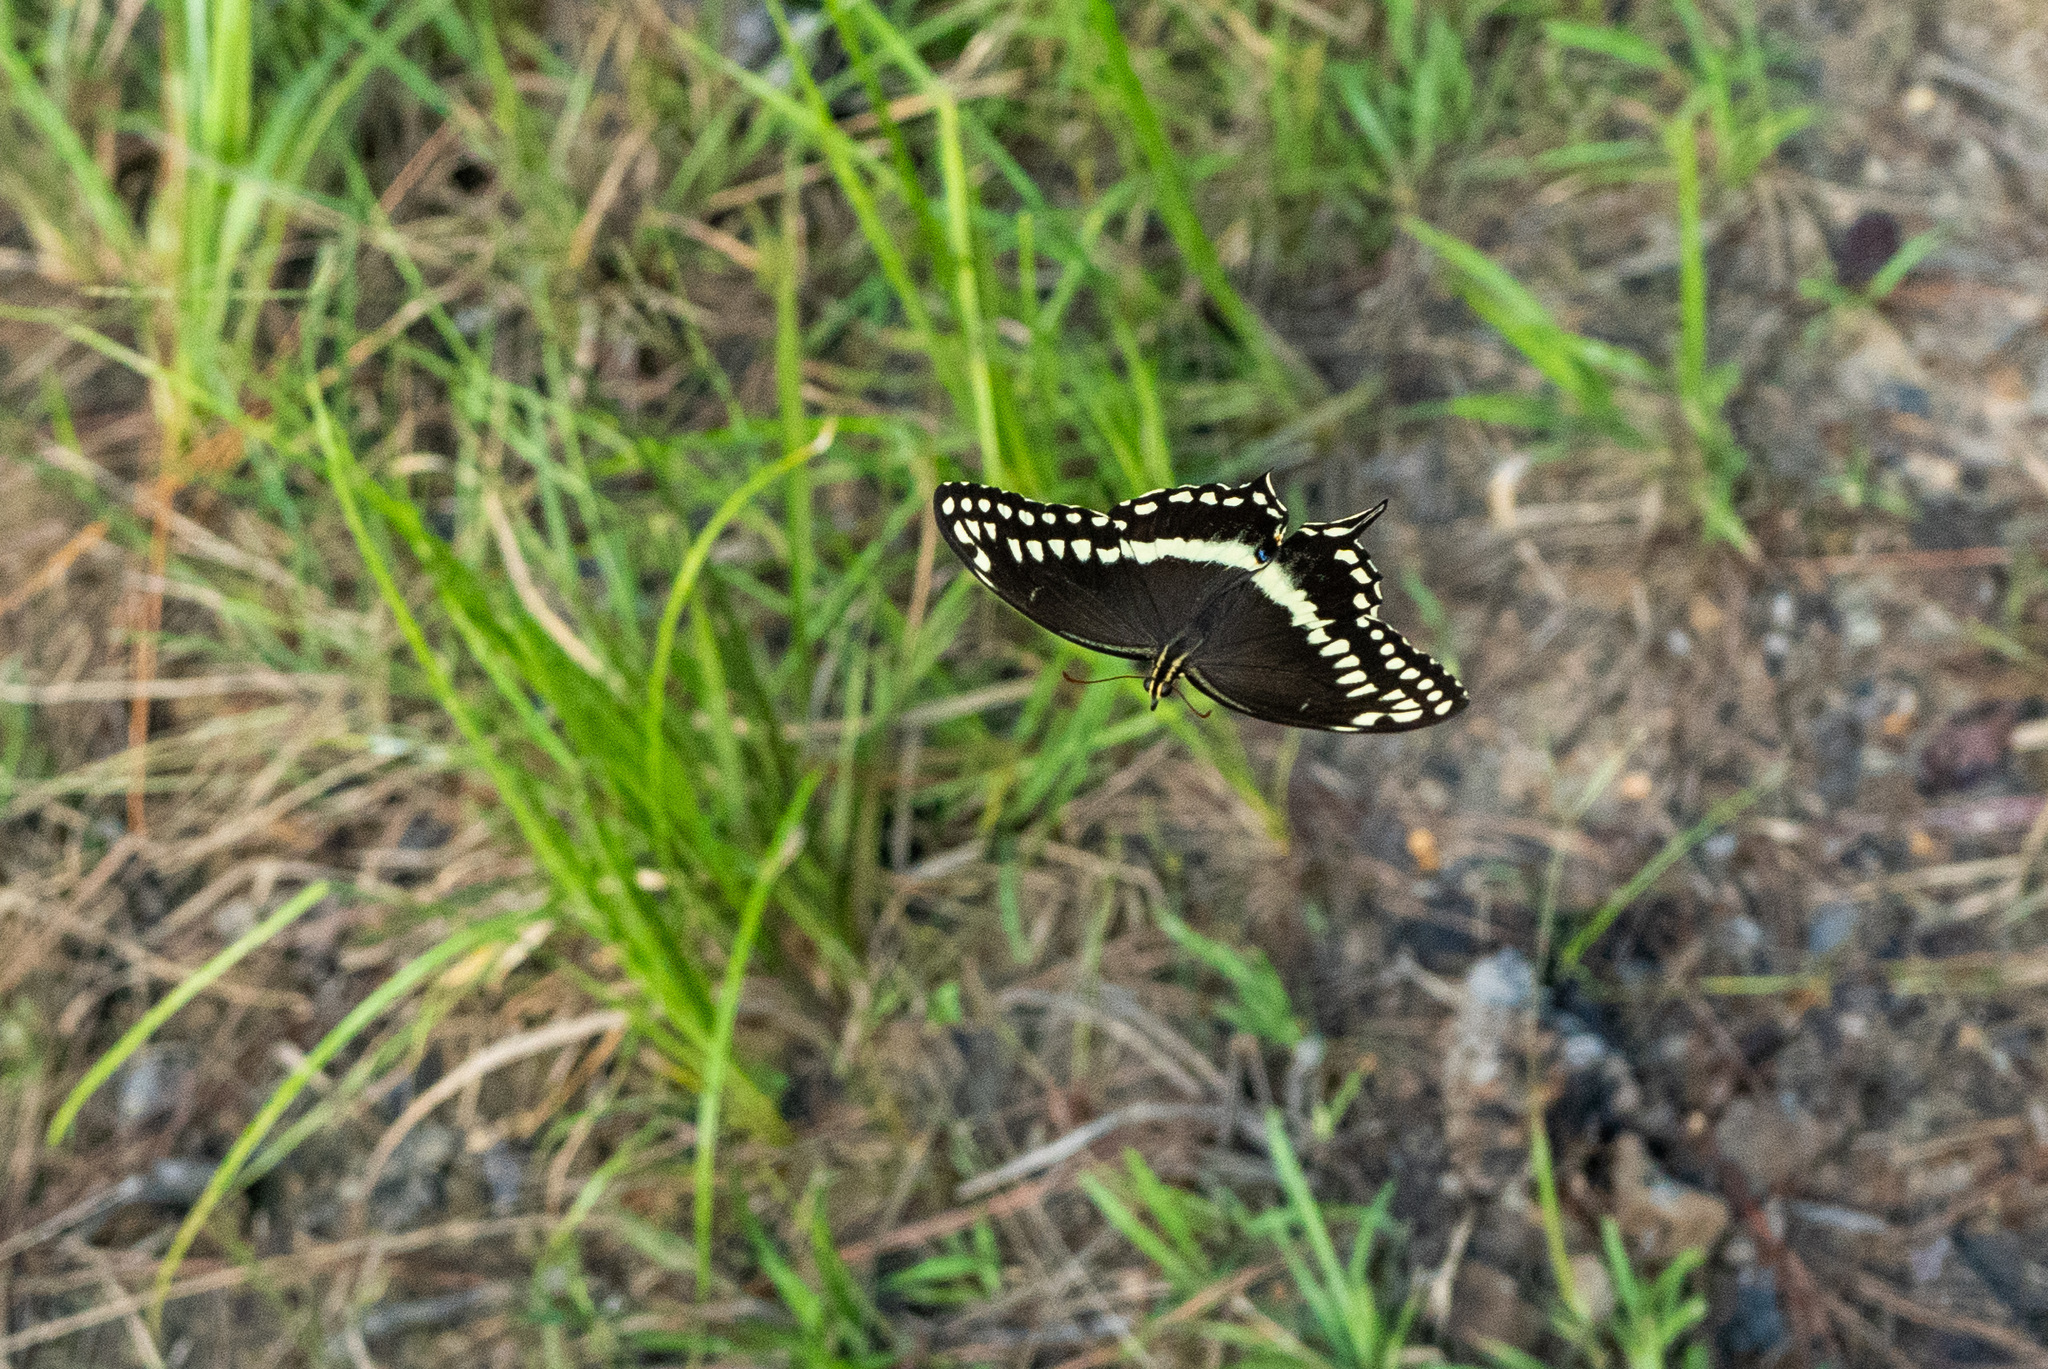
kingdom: Animalia
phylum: Arthropoda
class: Insecta
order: Lepidoptera
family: Papilionidae
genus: Papilio
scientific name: Papilio palamedes
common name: Palamedes swallowtail
